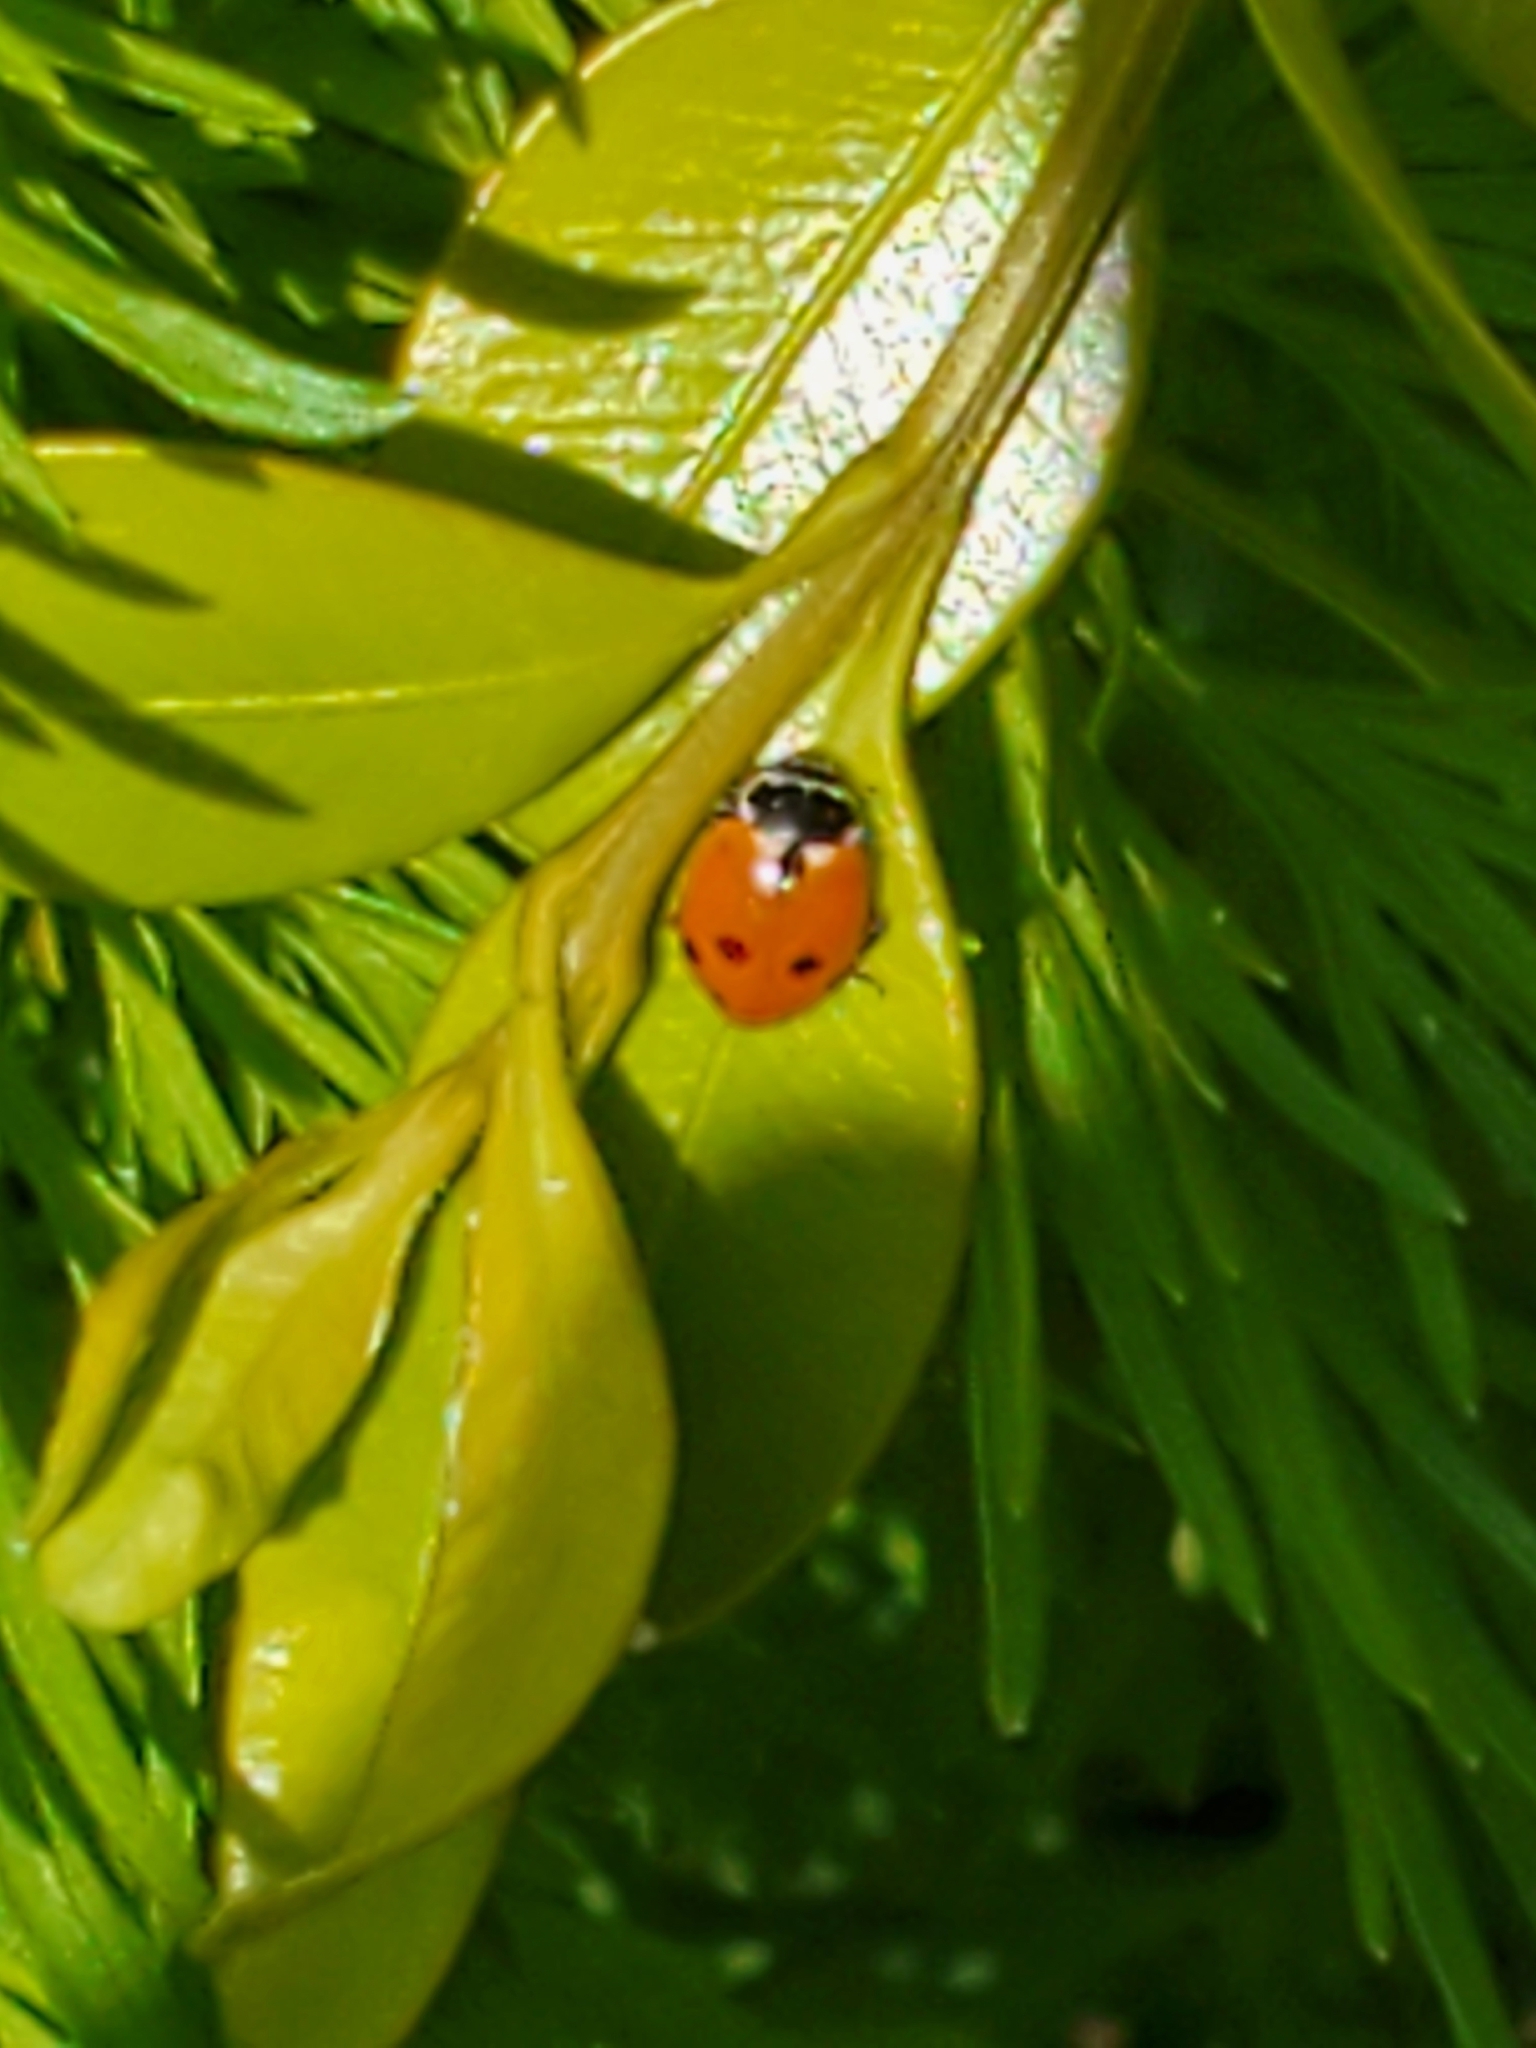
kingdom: Animalia
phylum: Arthropoda
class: Insecta
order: Coleoptera
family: Coccinellidae
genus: Hippodamia
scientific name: Hippodamia variegata
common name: Ladybird beetle
